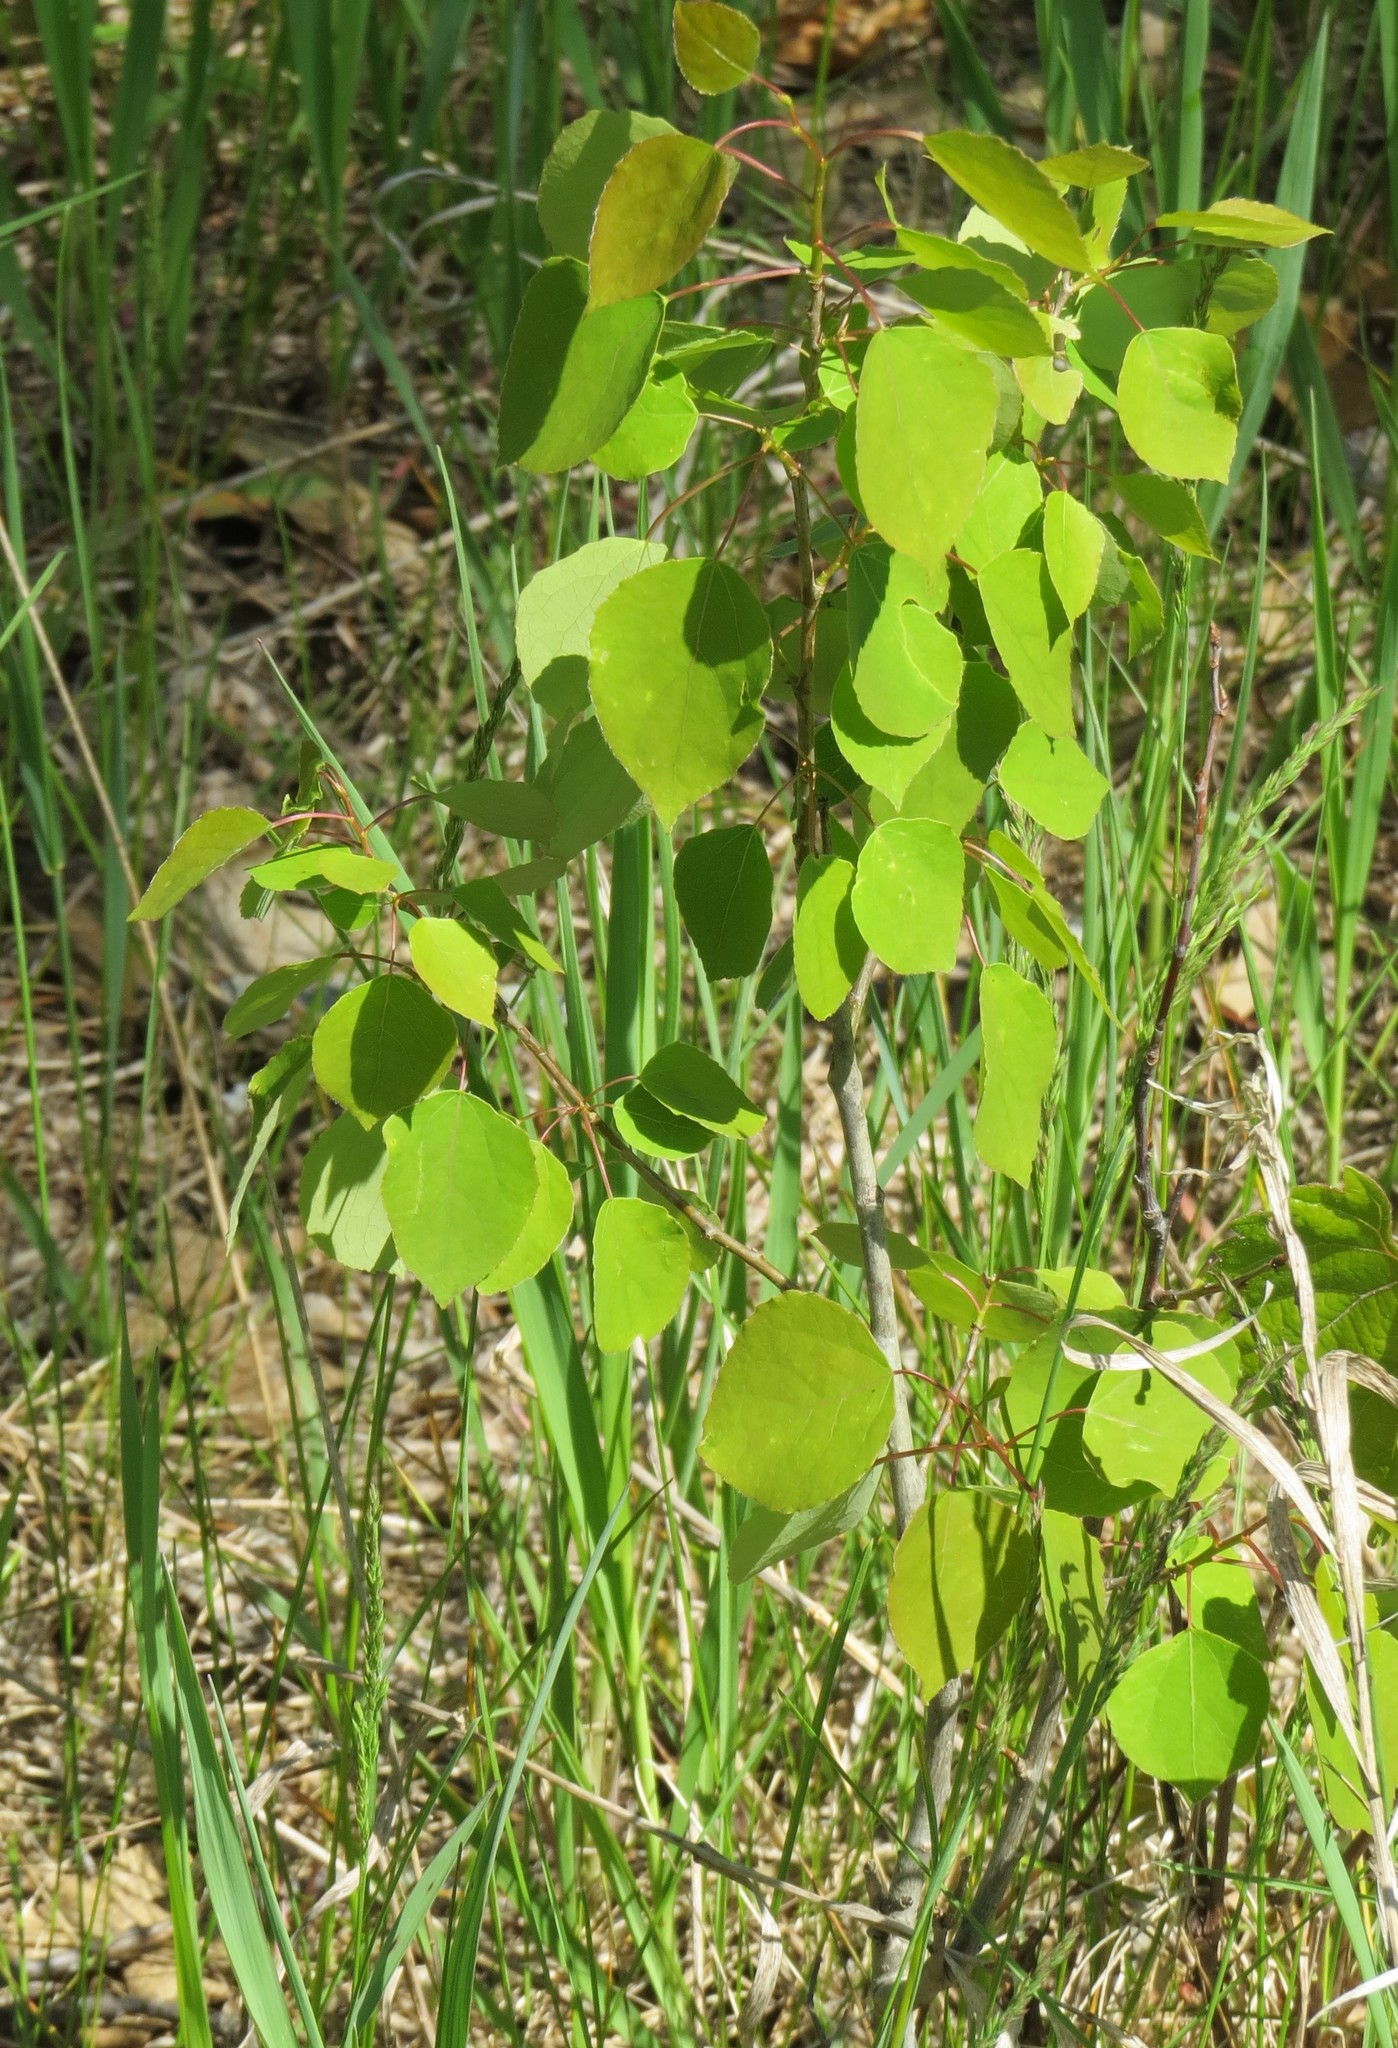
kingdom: Plantae
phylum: Tracheophyta
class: Magnoliopsida
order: Malpighiales
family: Salicaceae
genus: Populus
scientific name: Populus tremuloides
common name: Quaking aspen
